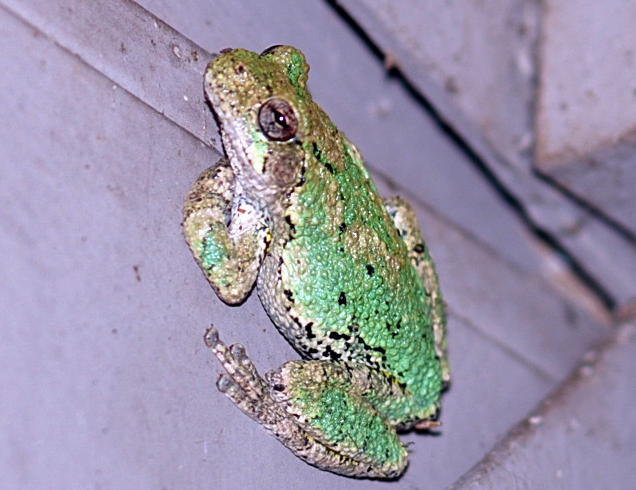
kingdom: Animalia
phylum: Chordata
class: Amphibia
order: Anura
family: Hylidae
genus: Dryophytes
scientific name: Dryophytes versicolor
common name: Gray treefrog
